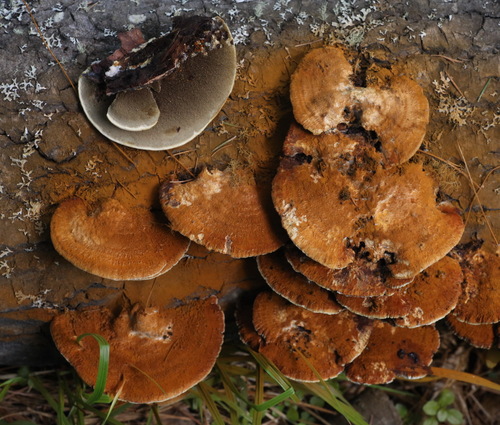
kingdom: Fungi
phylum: Basidiomycota
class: Agaricomycetes
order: Hymenochaetales
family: Hymenochaetaceae
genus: Inocutis
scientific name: Inocutis rheades
